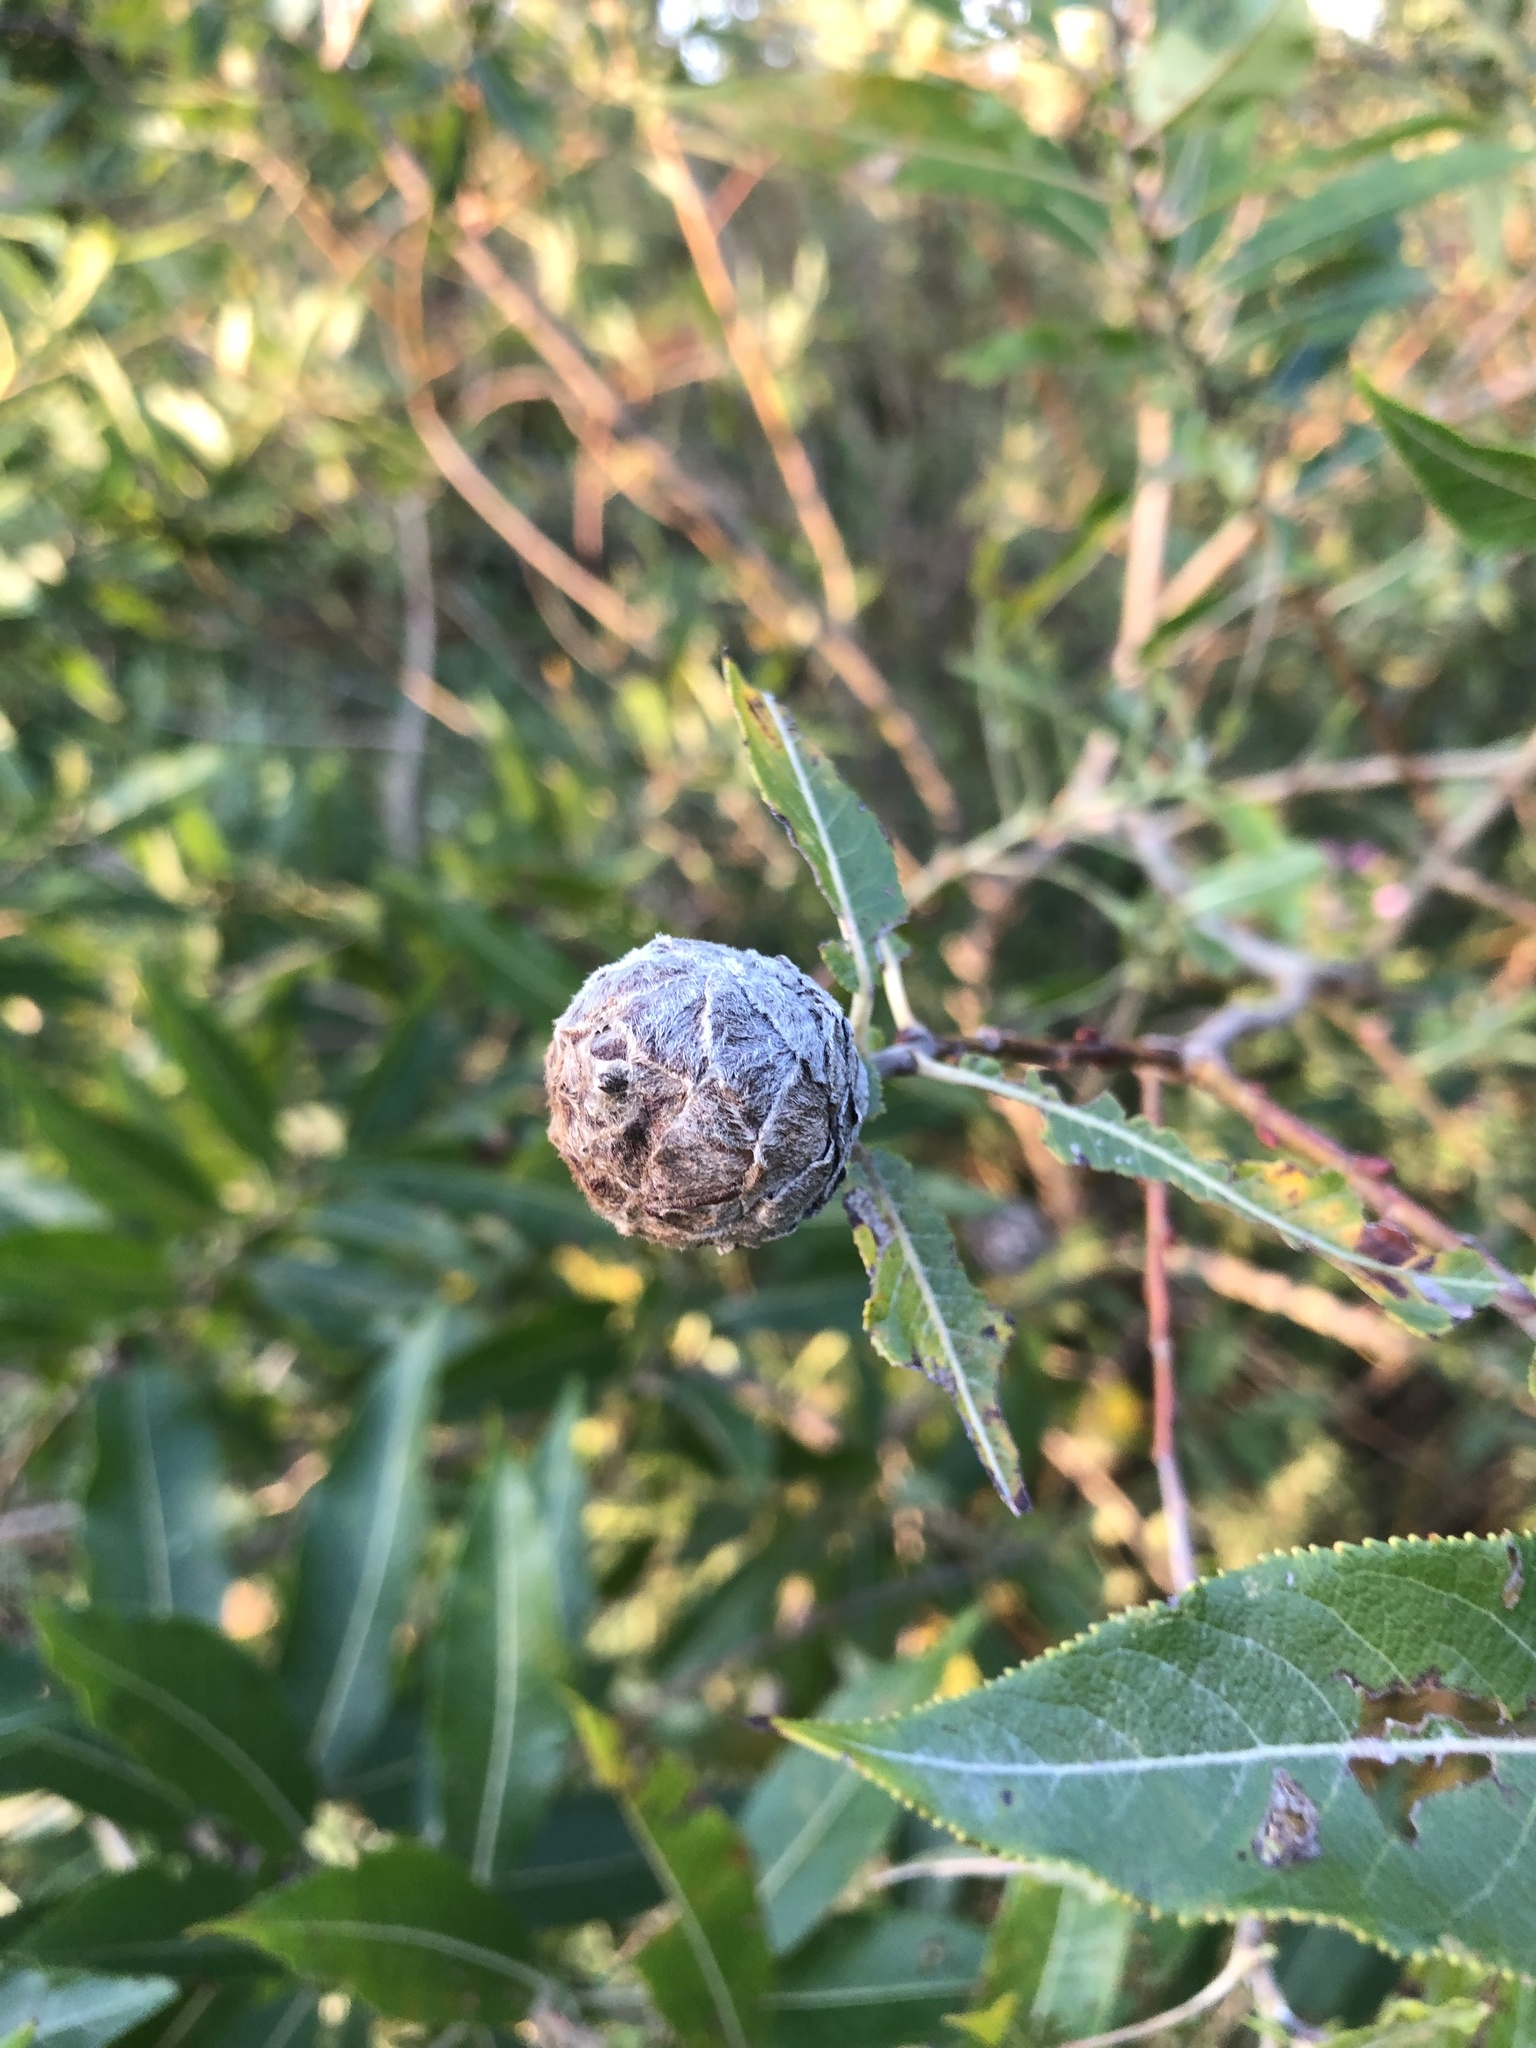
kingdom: Animalia
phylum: Arthropoda
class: Insecta
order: Diptera
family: Cecidomyiidae
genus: Rabdophaga
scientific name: Rabdophaga strobiloides
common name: Willow pinecone gall midge
